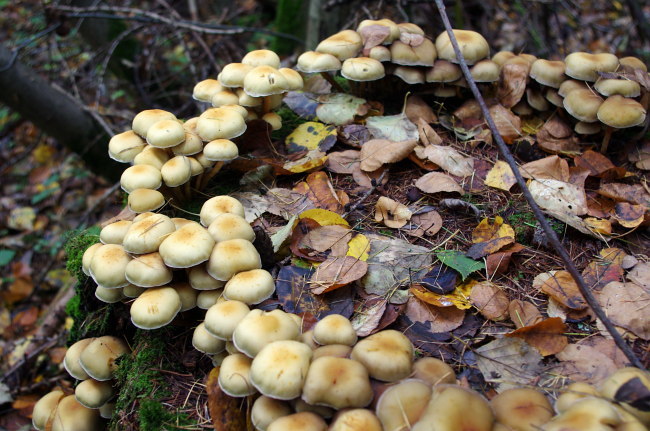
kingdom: Fungi
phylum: Basidiomycota
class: Agaricomycetes
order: Agaricales
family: Strophariaceae
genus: Hypholoma
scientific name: Hypholoma capnoides
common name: Conifer tuft
